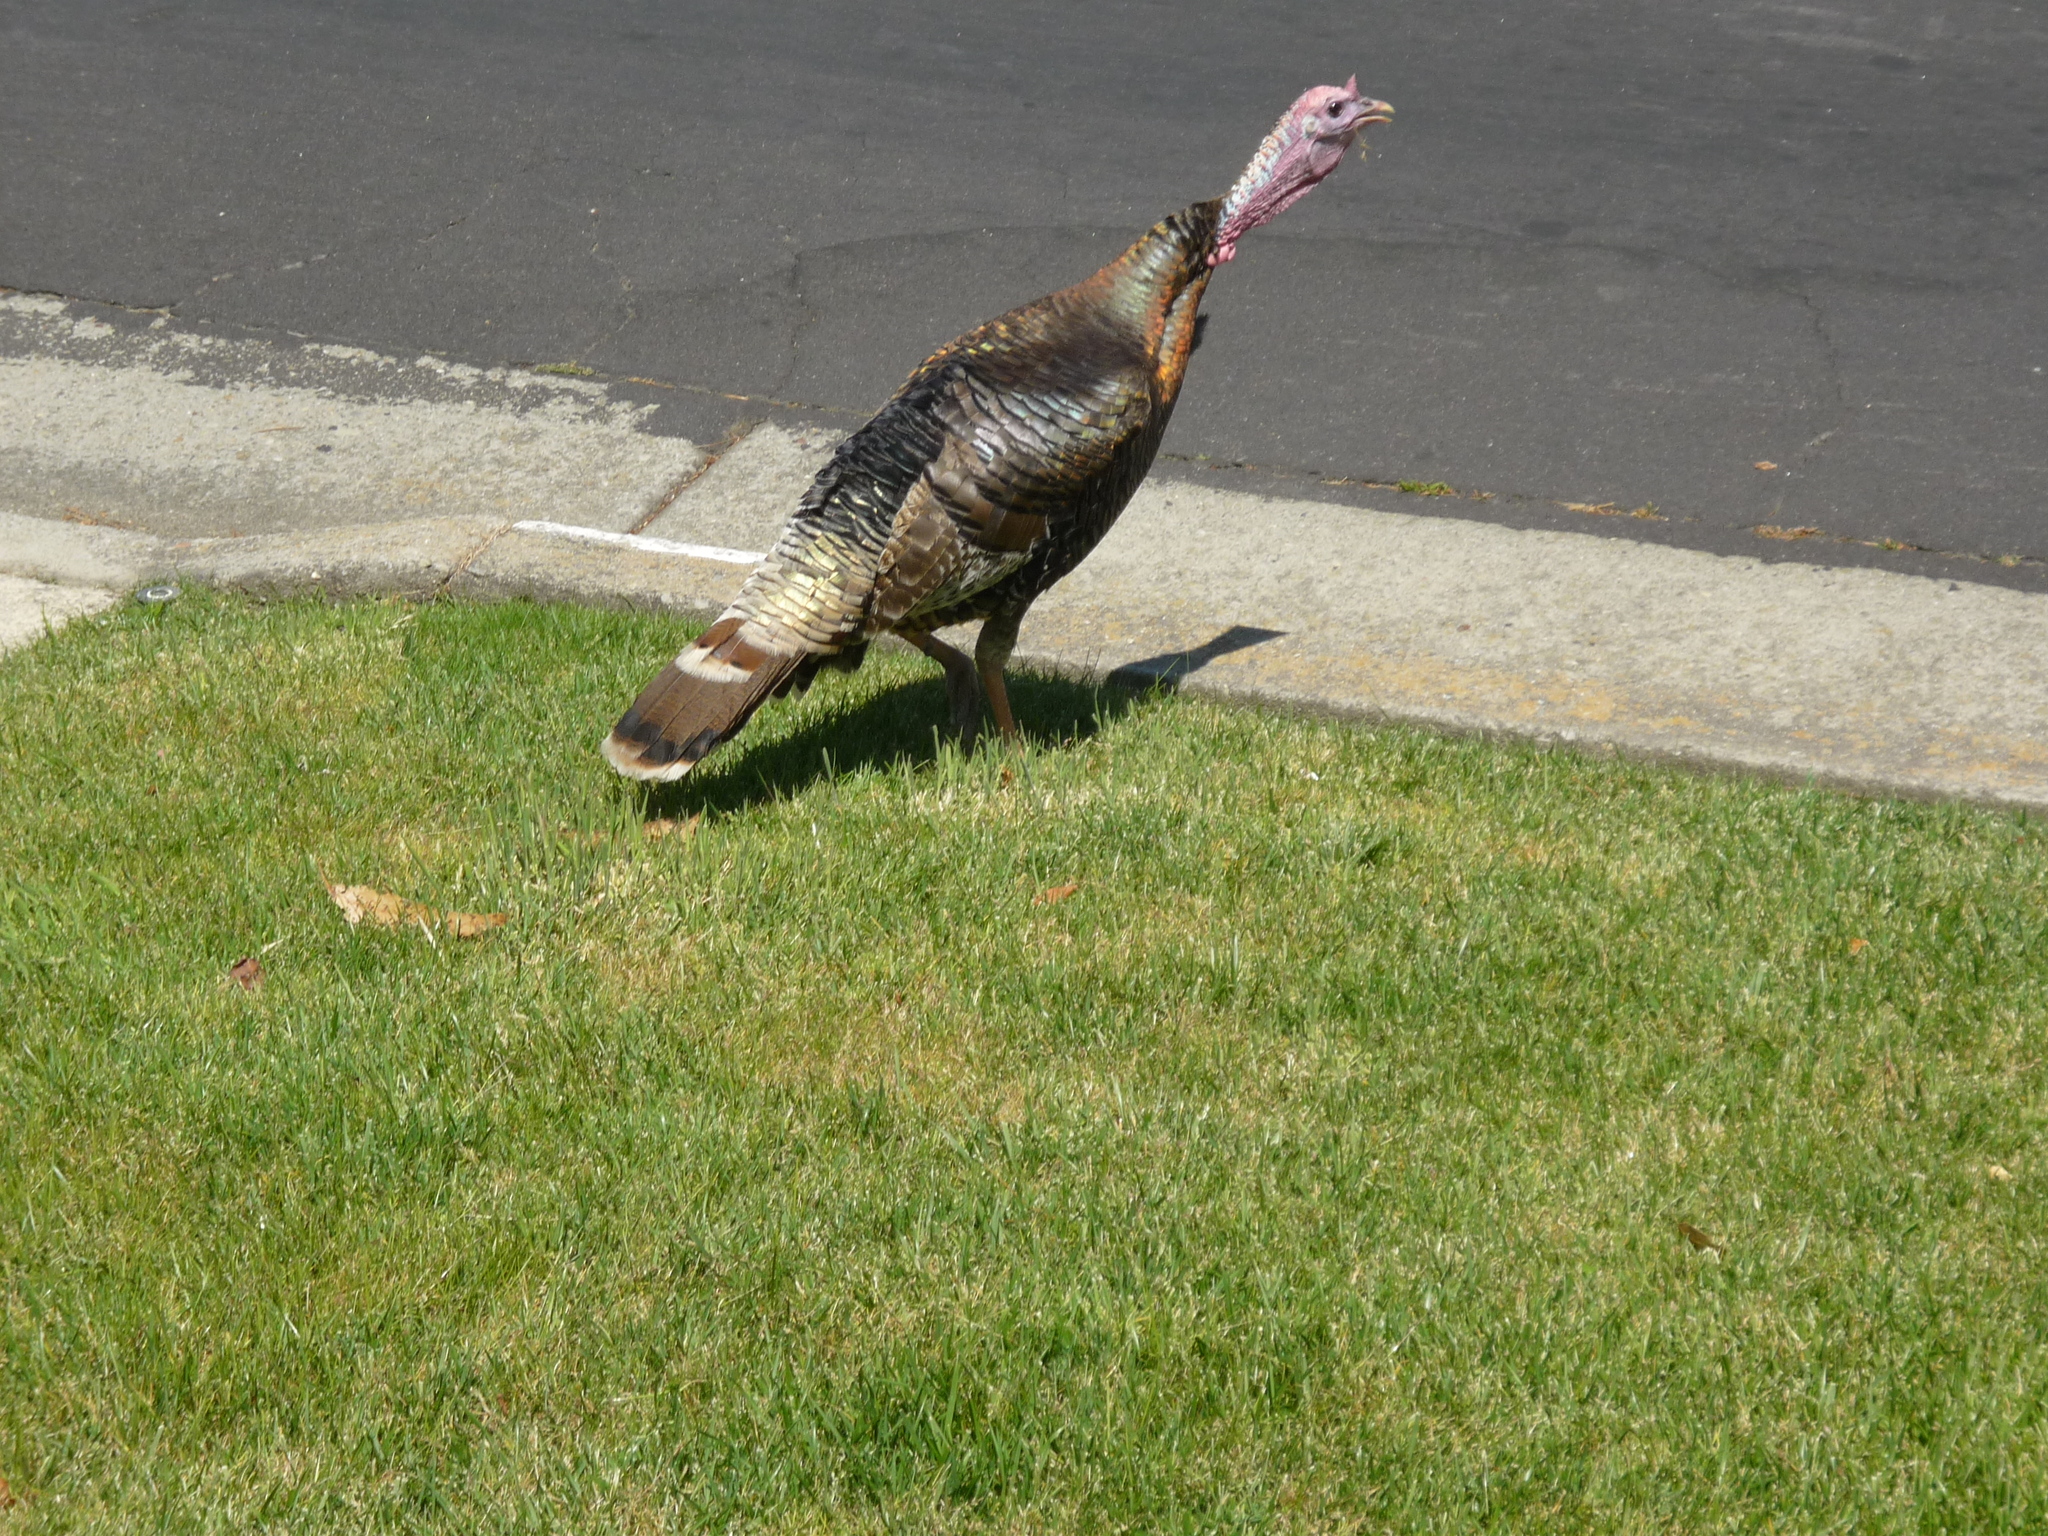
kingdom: Animalia
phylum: Chordata
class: Aves
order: Galliformes
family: Phasianidae
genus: Meleagris
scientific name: Meleagris gallopavo
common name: Wild turkey
